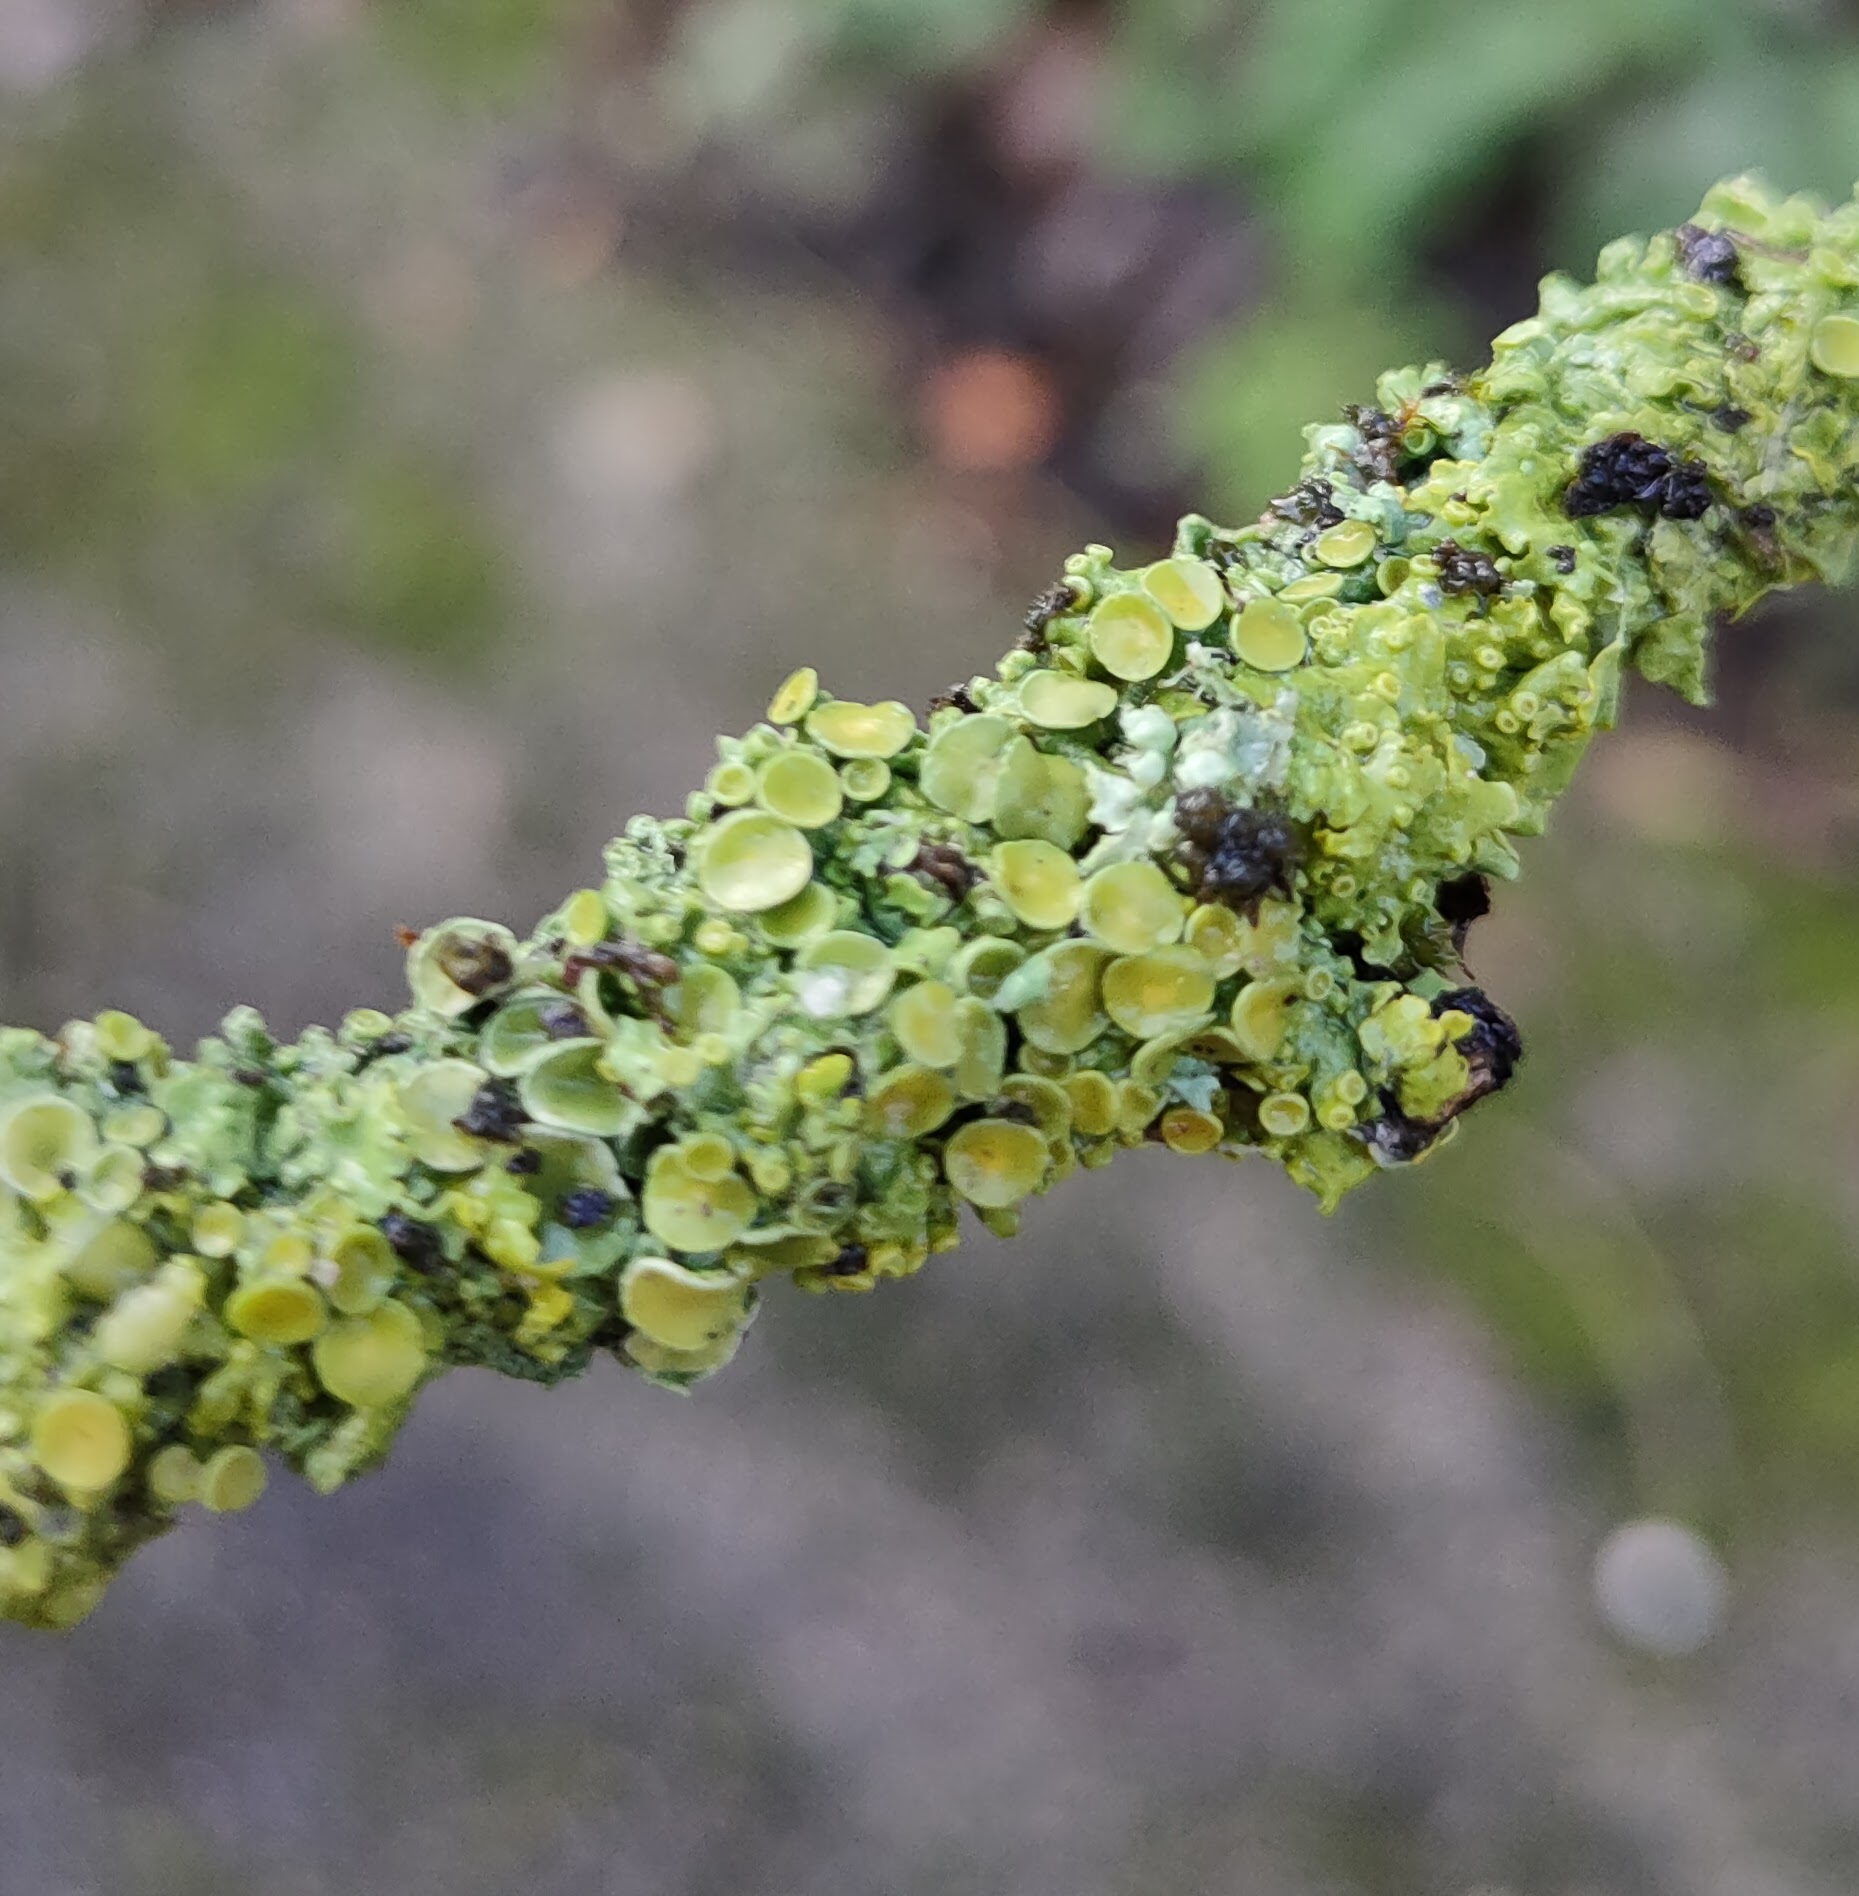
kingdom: Fungi
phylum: Ascomycota
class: Lecanoromycetes
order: Teloschistales
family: Teloschistaceae
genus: Xanthoria
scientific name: Xanthoria parietina
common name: Common orange lichen
